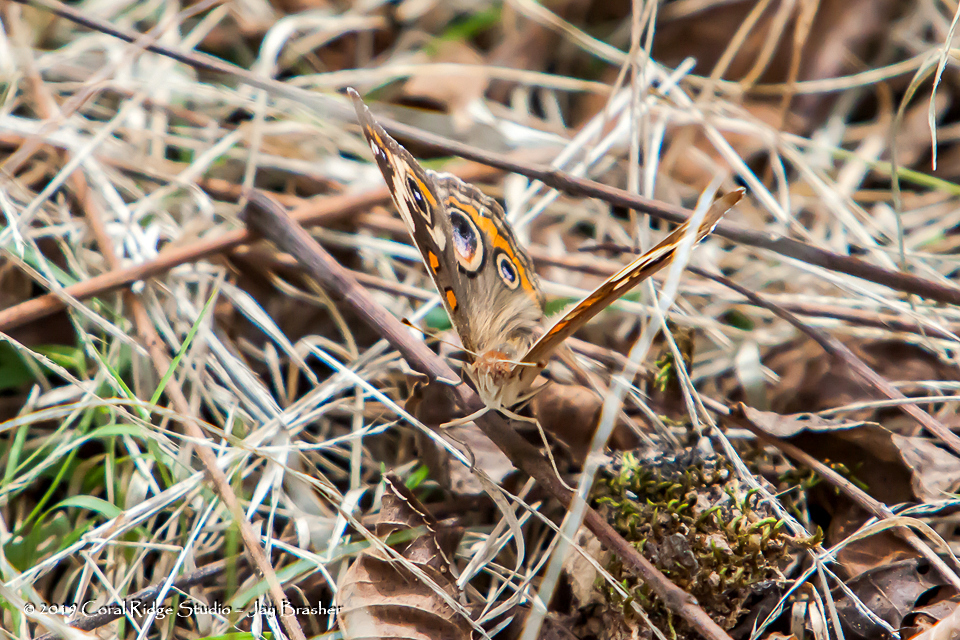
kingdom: Animalia
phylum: Arthropoda
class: Insecta
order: Lepidoptera
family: Nymphalidae
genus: Junonia
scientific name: Junonia coenia
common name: Common buckeye
